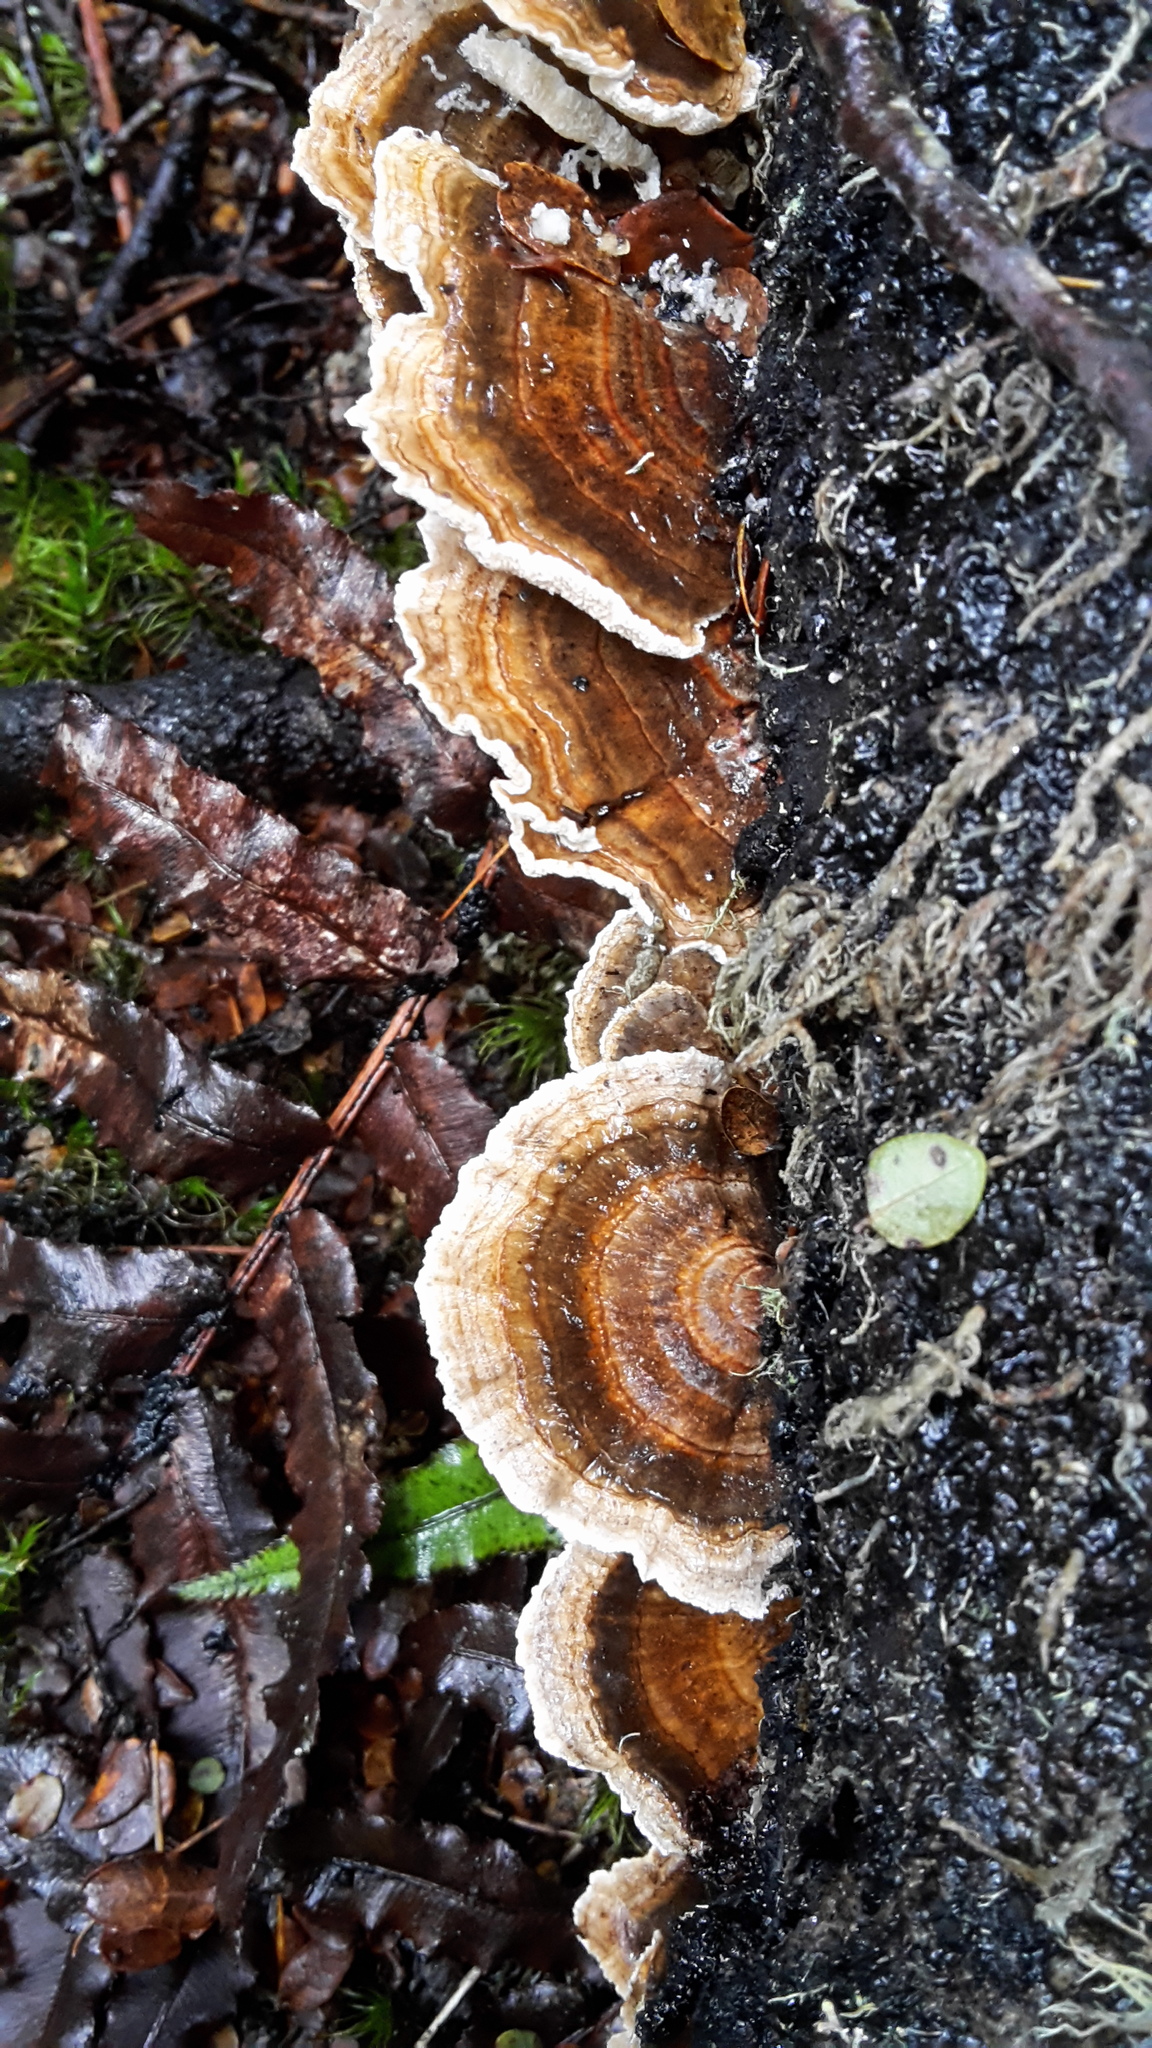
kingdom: Fungi
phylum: Basidiomycota
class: Agaricomycetes
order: Polyporales
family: Polyporaceae
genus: Trametes
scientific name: Trametes versicolor
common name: Turkeytail
